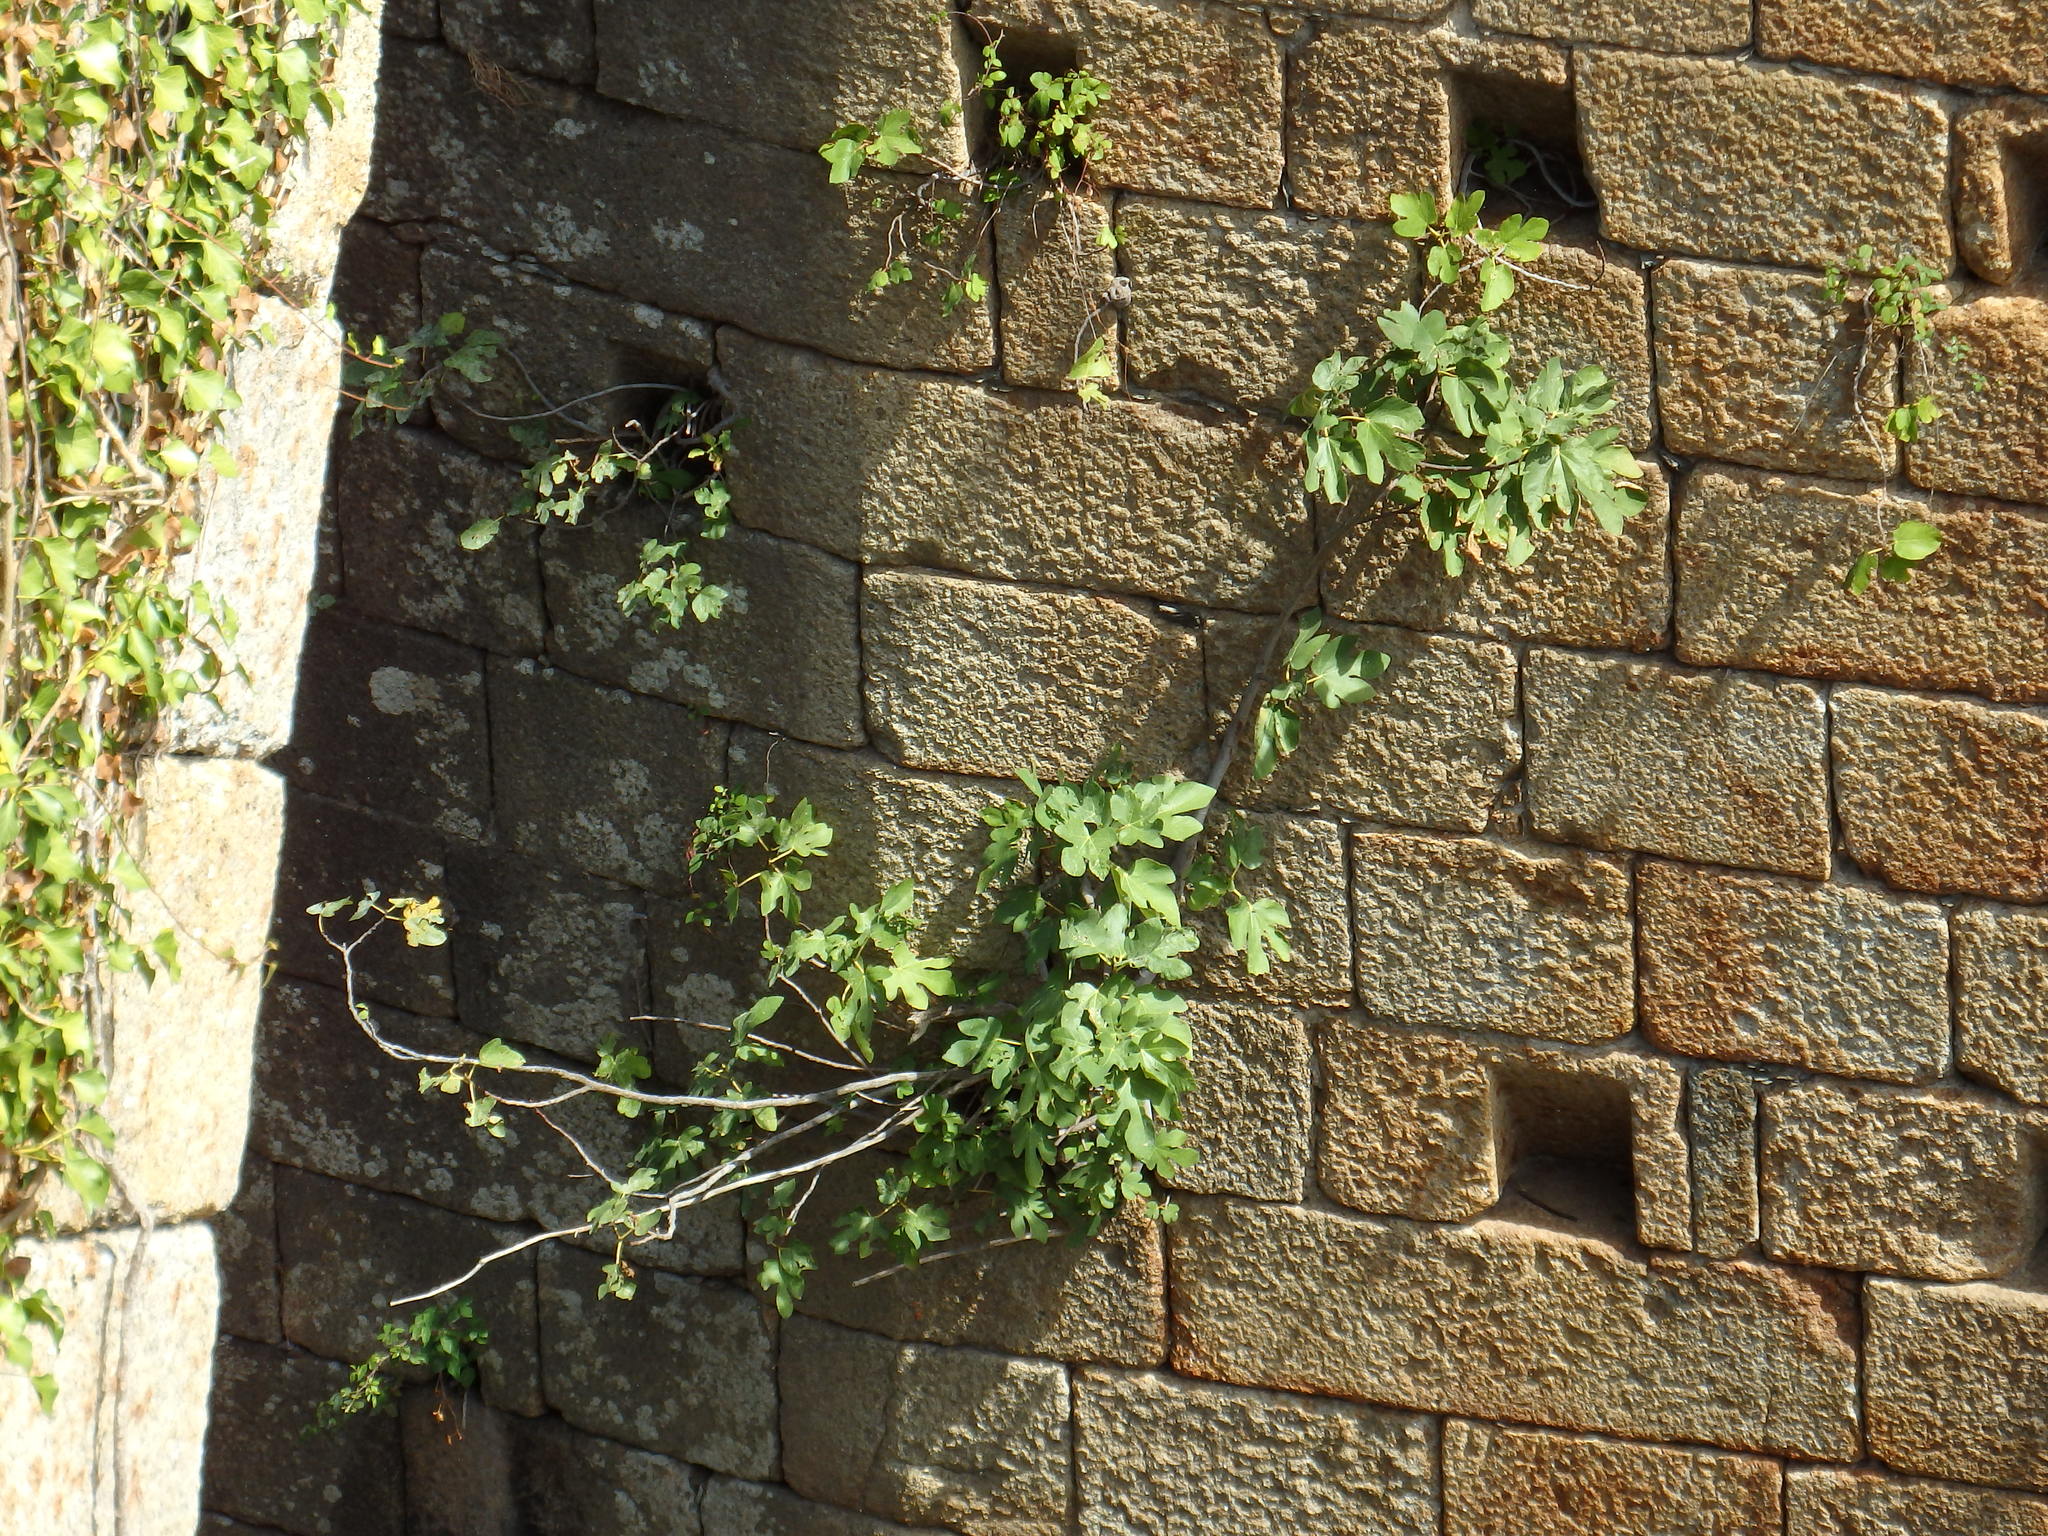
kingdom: Plantae
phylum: Tracheophyta
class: Magnoliopsida
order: Rosales
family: Moraceae
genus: Ficus
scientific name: Ficus carica
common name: Fig
